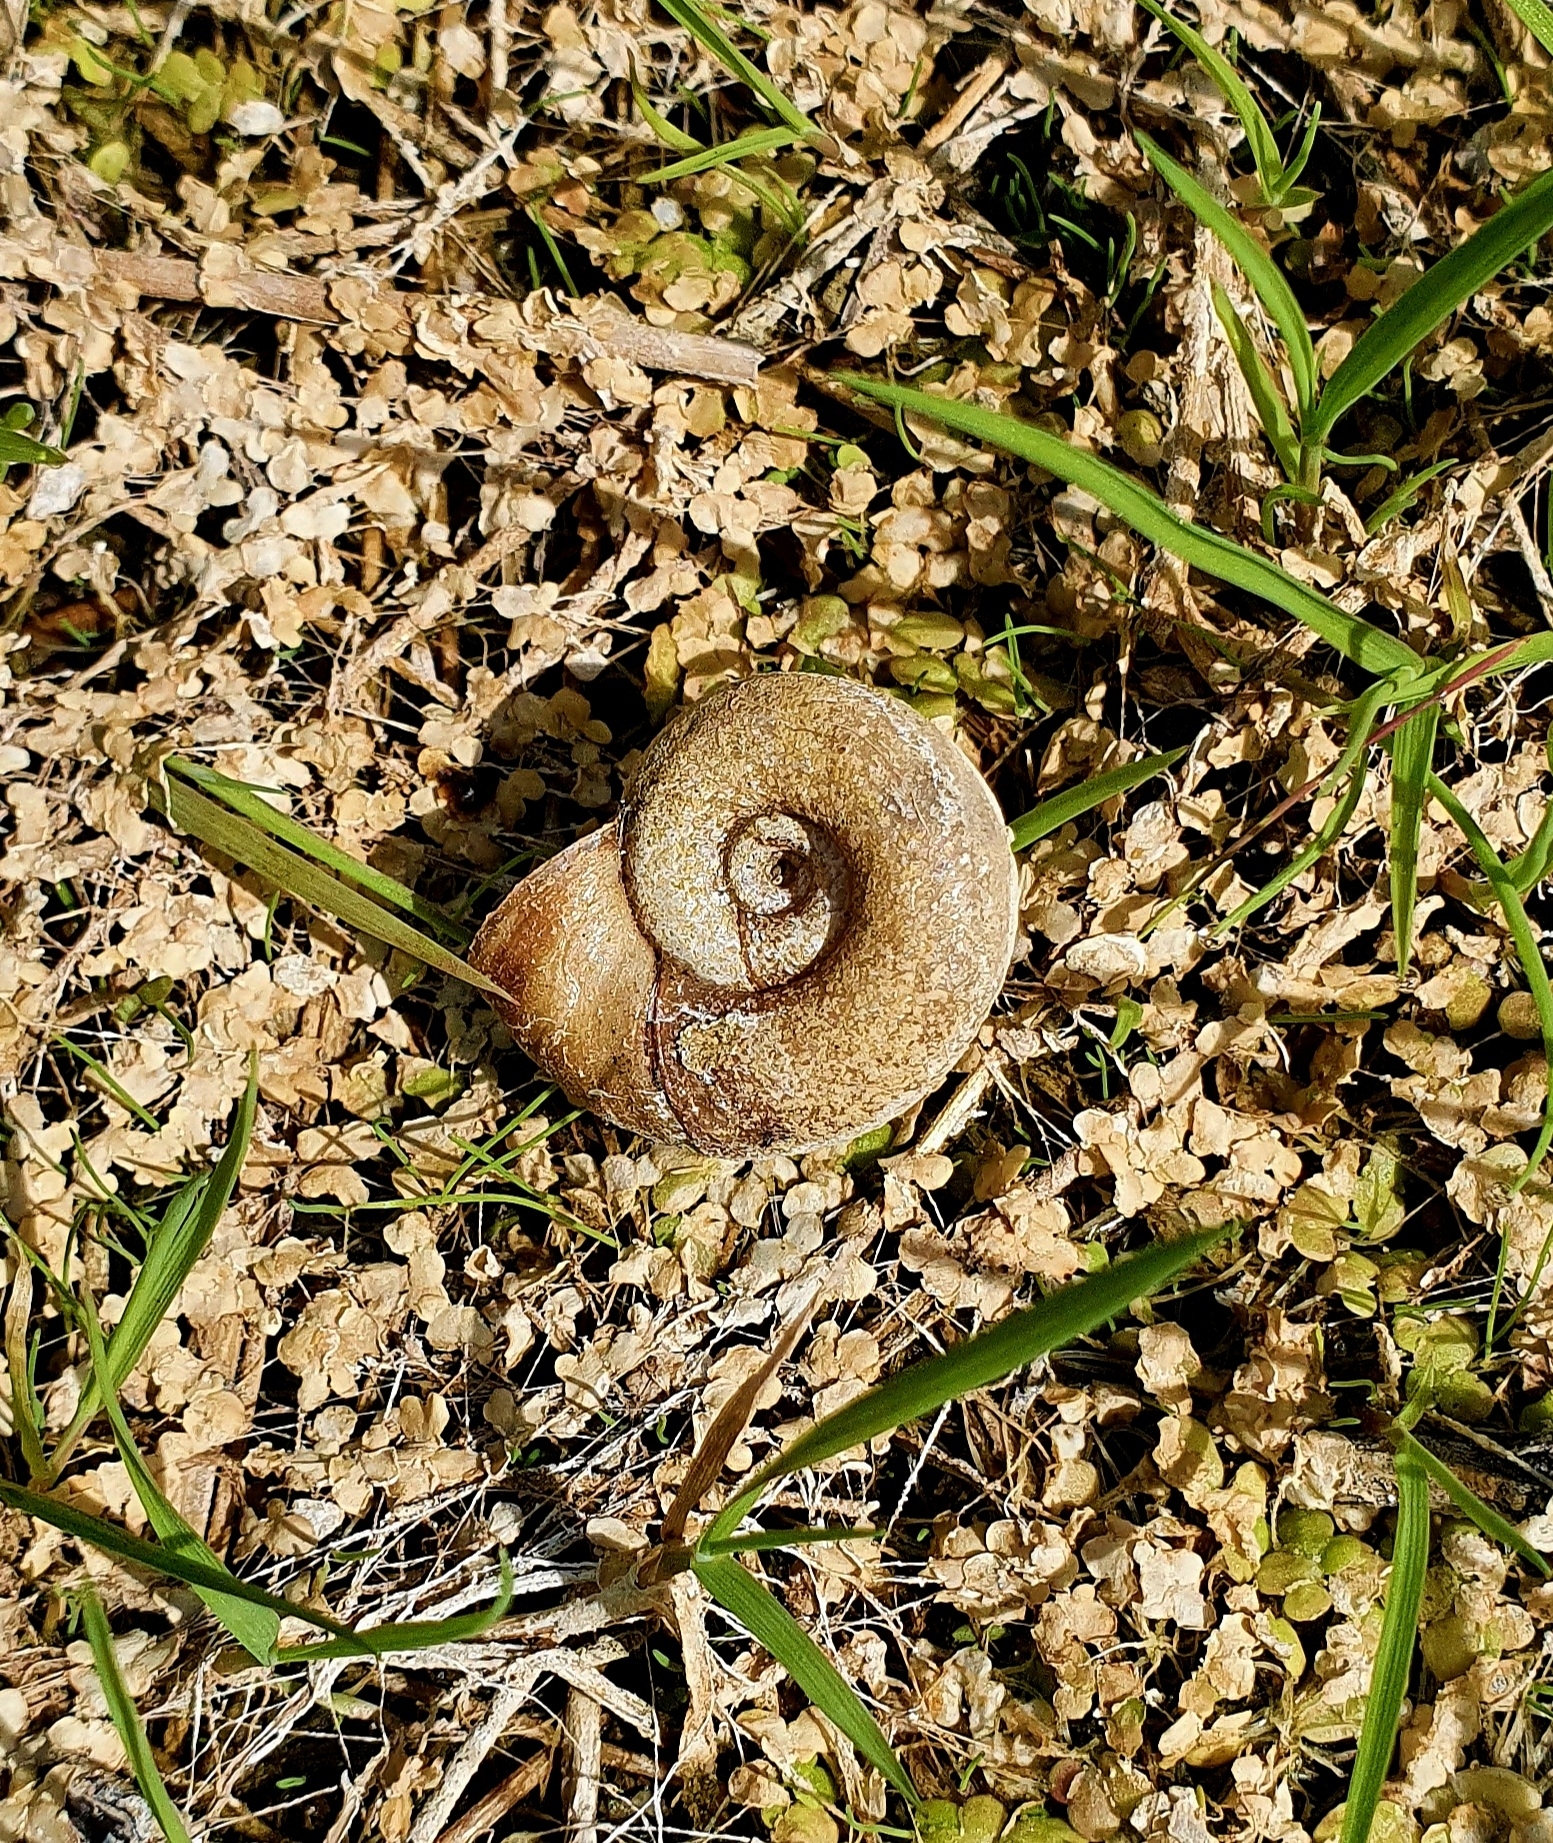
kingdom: Animalia
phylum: Mollusca
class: Gastropoda
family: Planorbidae
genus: Planorbarius
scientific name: Planorbarius corneus
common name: Great ramshorn
